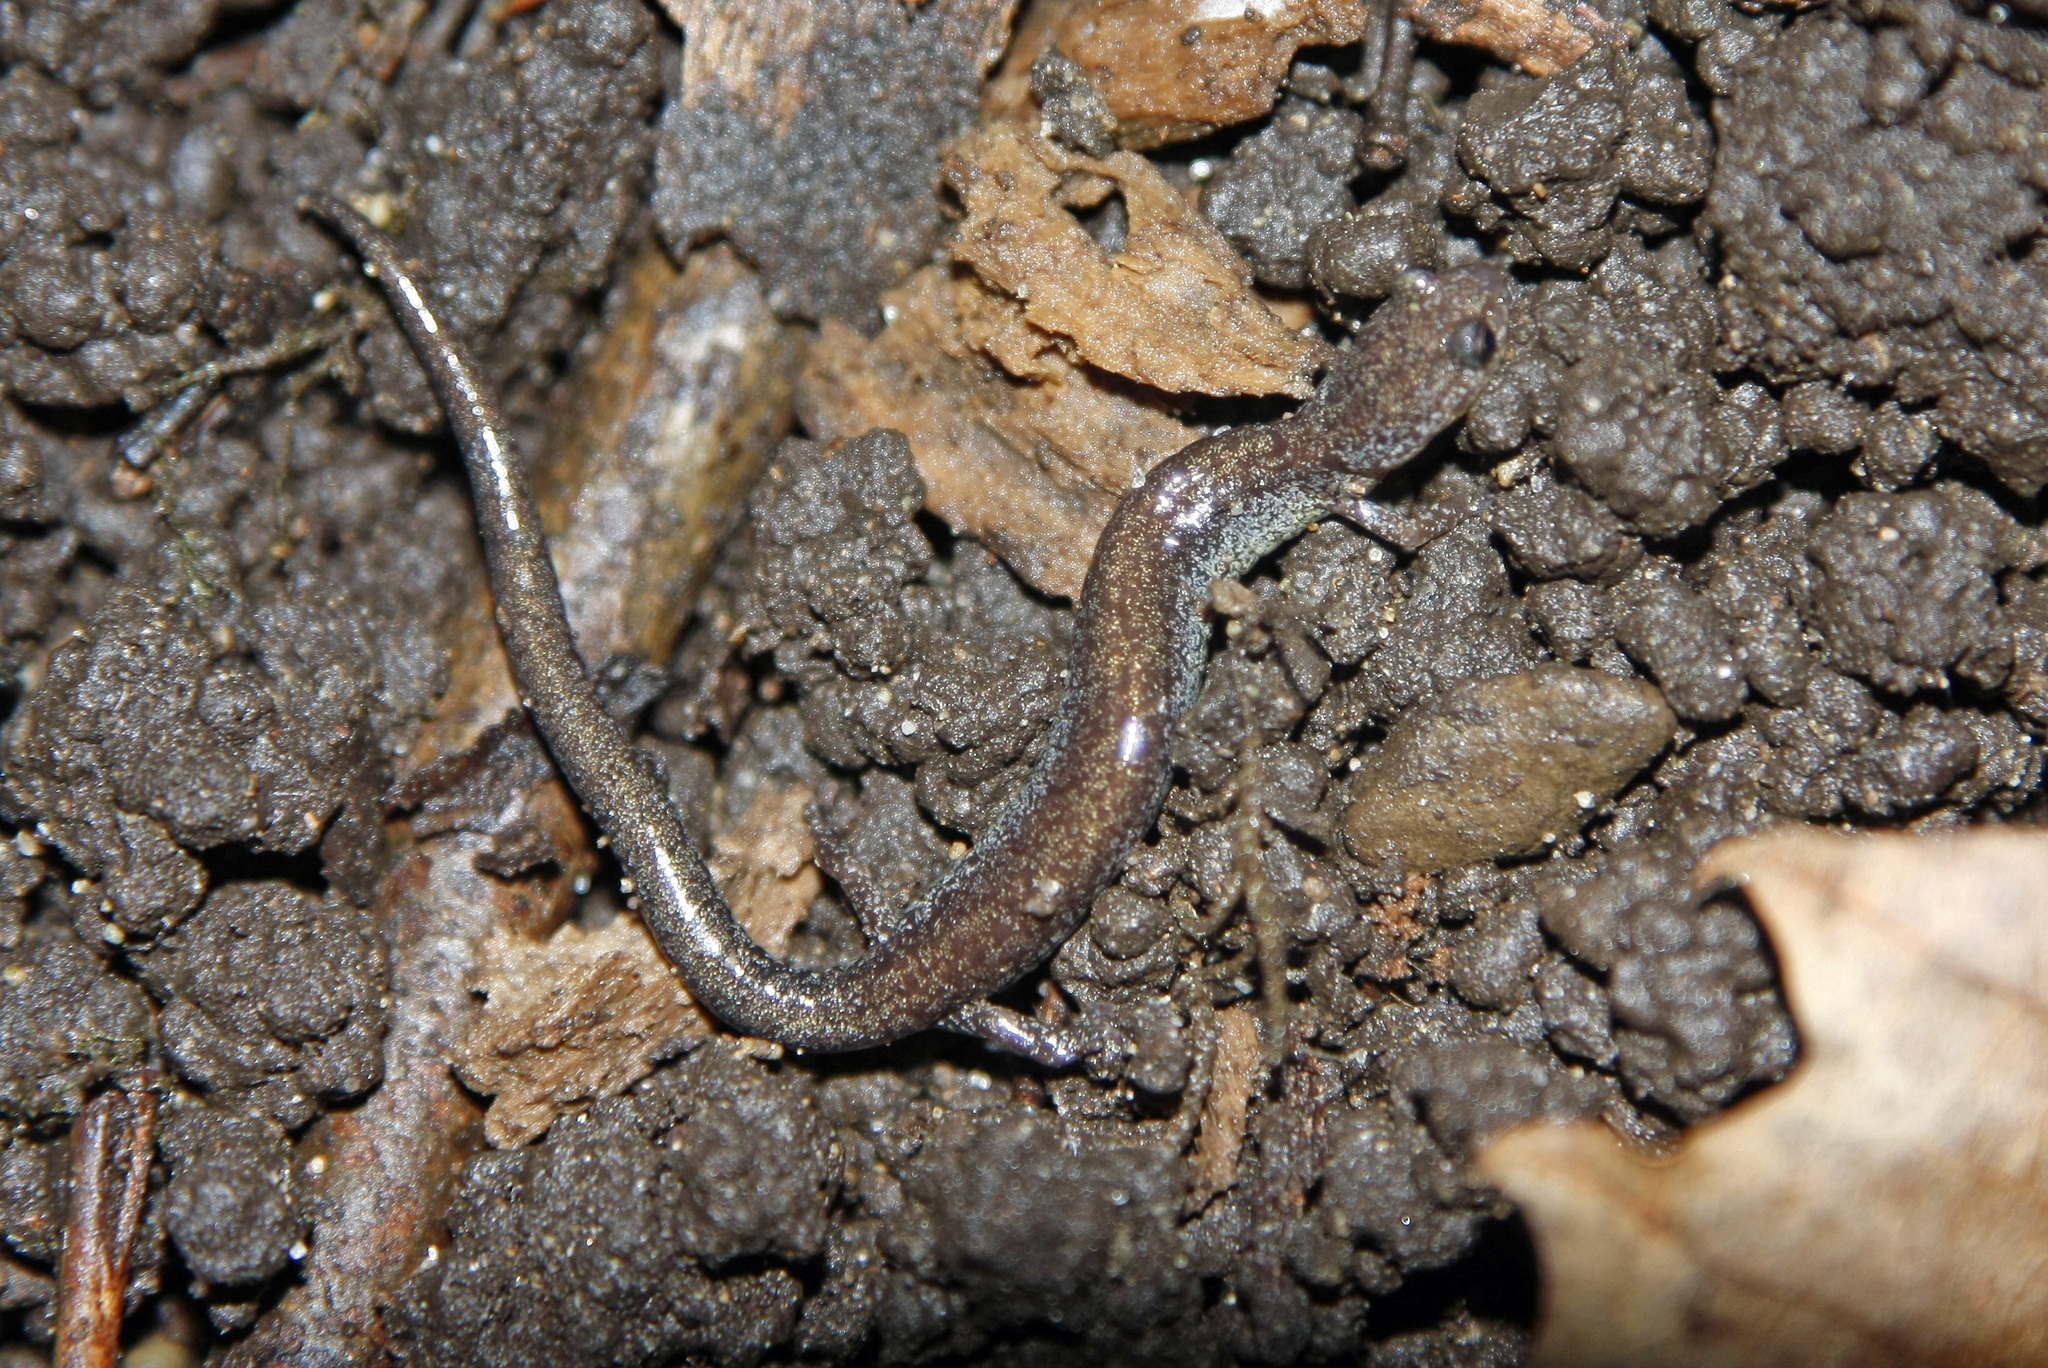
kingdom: Animalia
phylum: Chordata
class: Amphibia
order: Caudata
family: Plethodontidae
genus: Plethodon
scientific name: Plethodon cinereus
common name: Redback salamander
